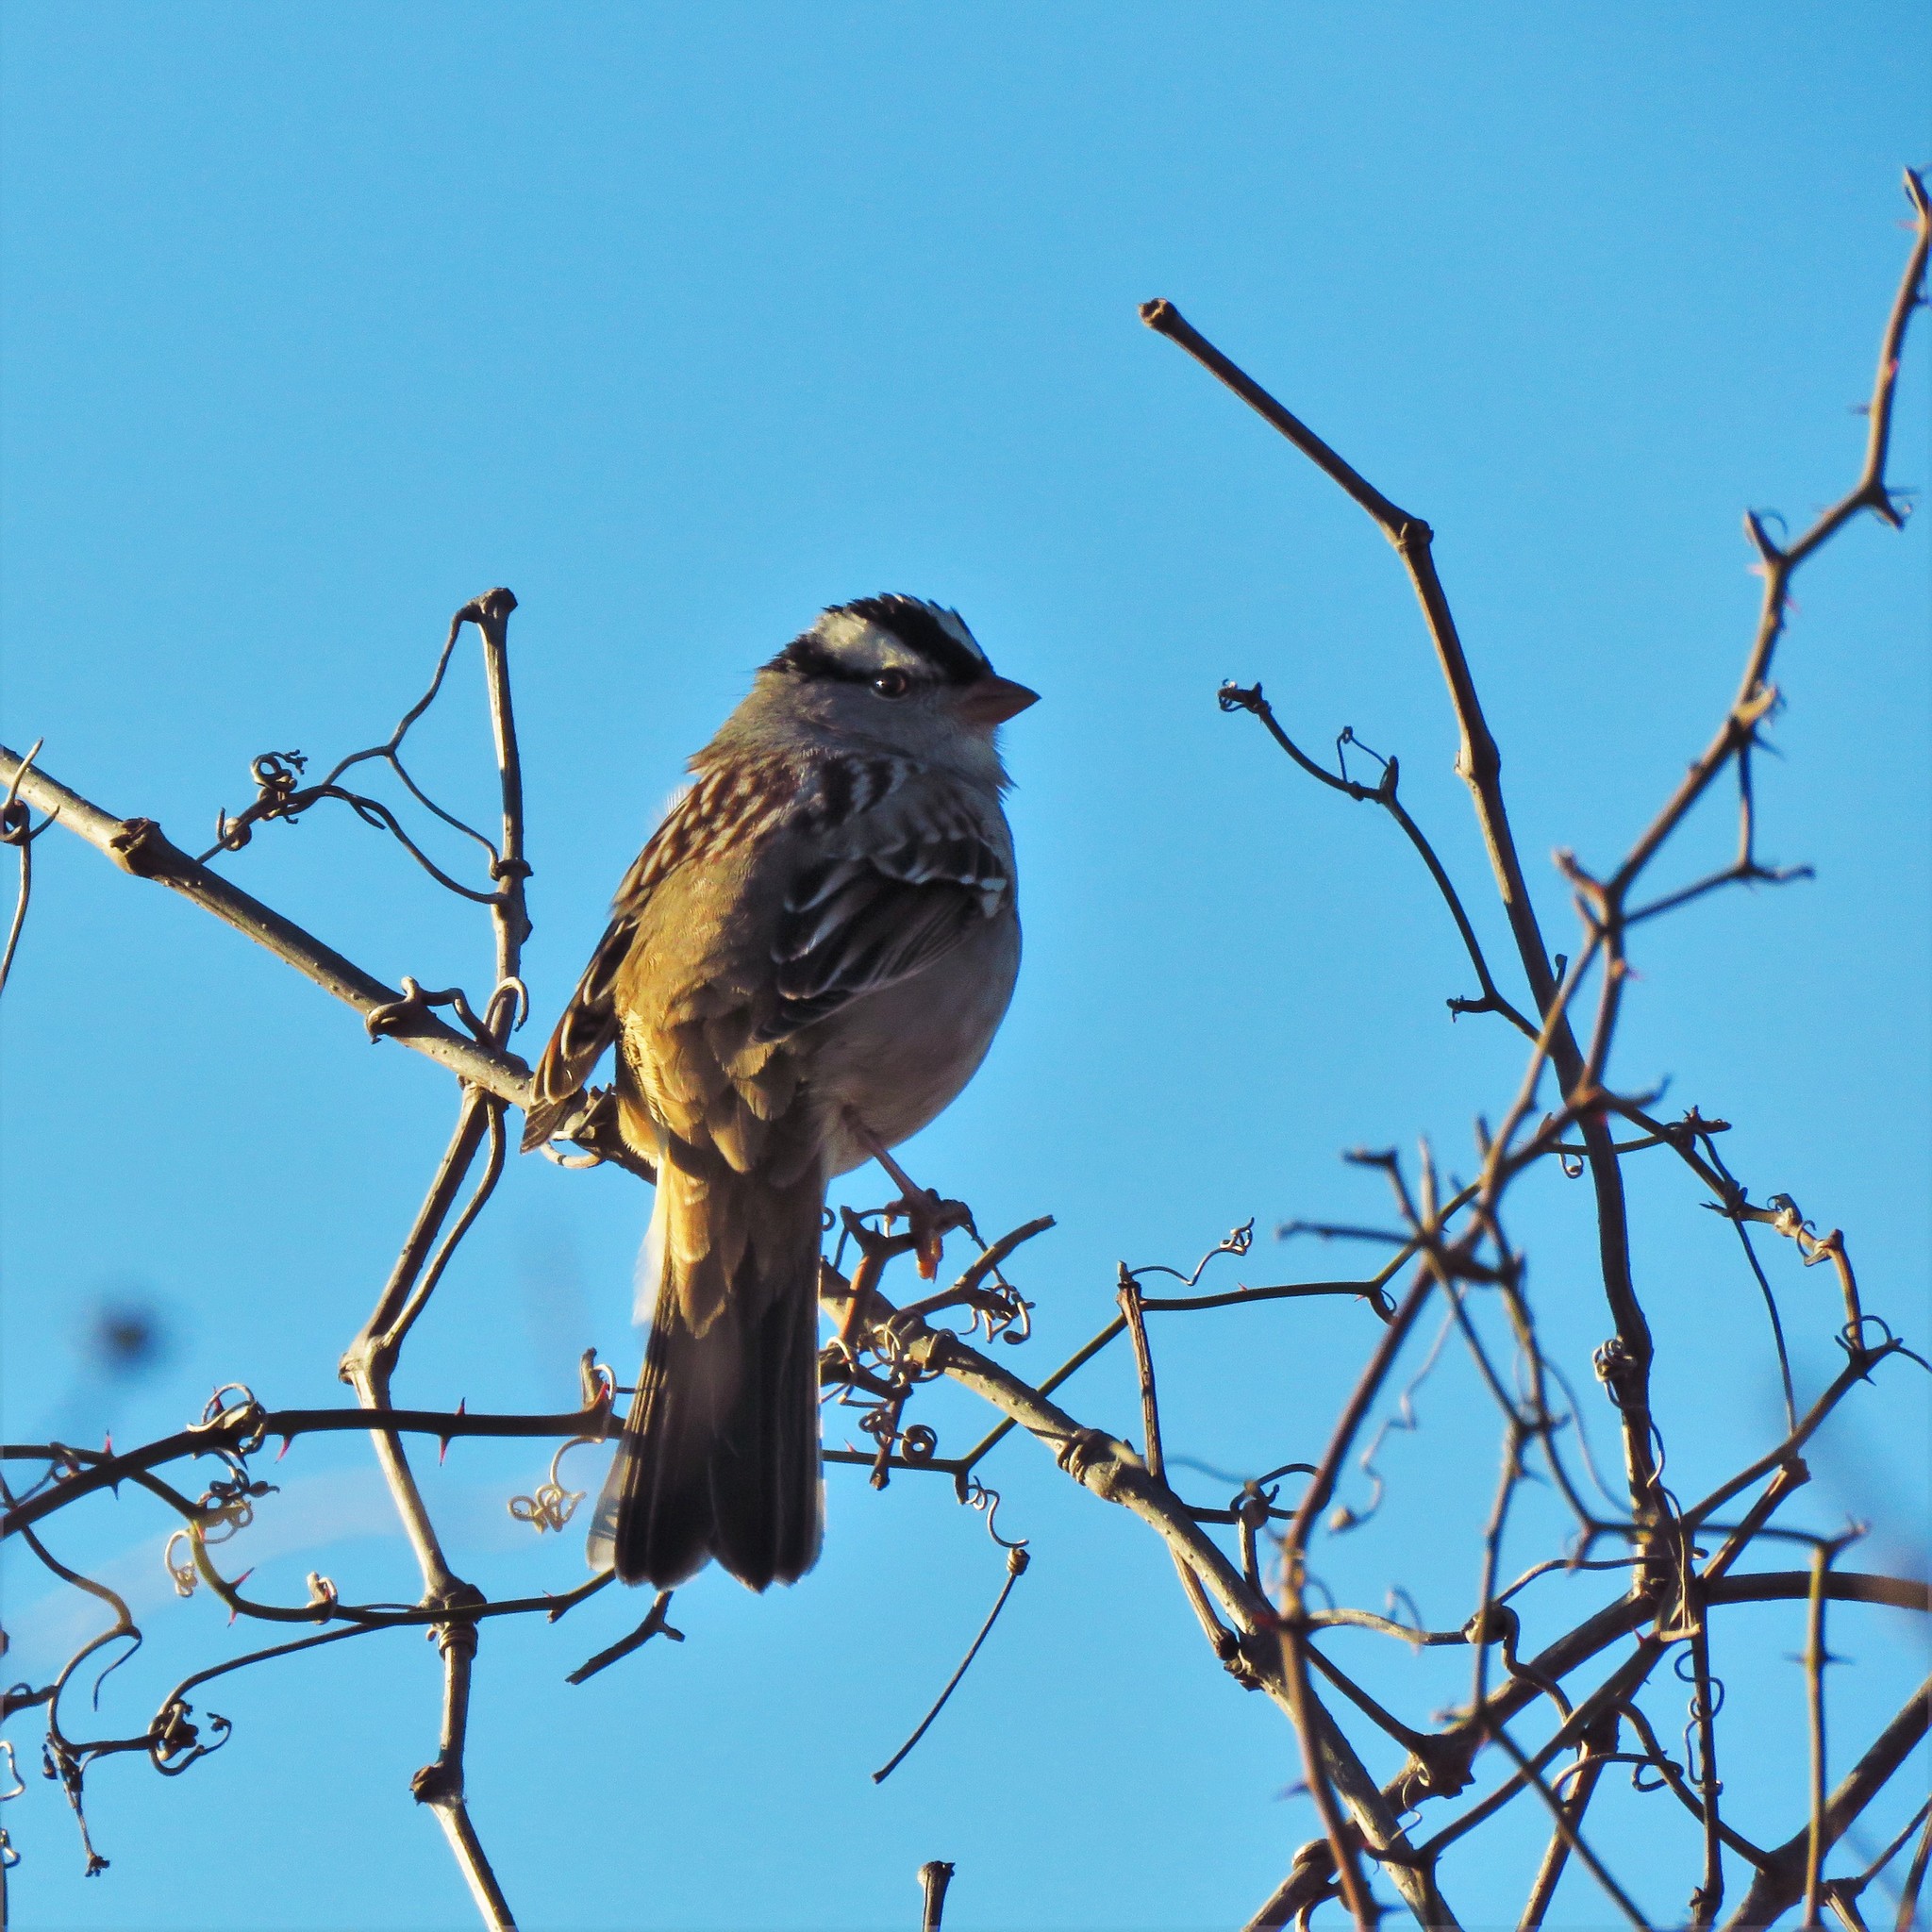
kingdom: Animalia
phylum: Chordata
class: Aves
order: Passeriformes
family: Passerellidae
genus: Zonotrichia
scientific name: Zonotrichia leucophrys
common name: White-crowned sparrow
